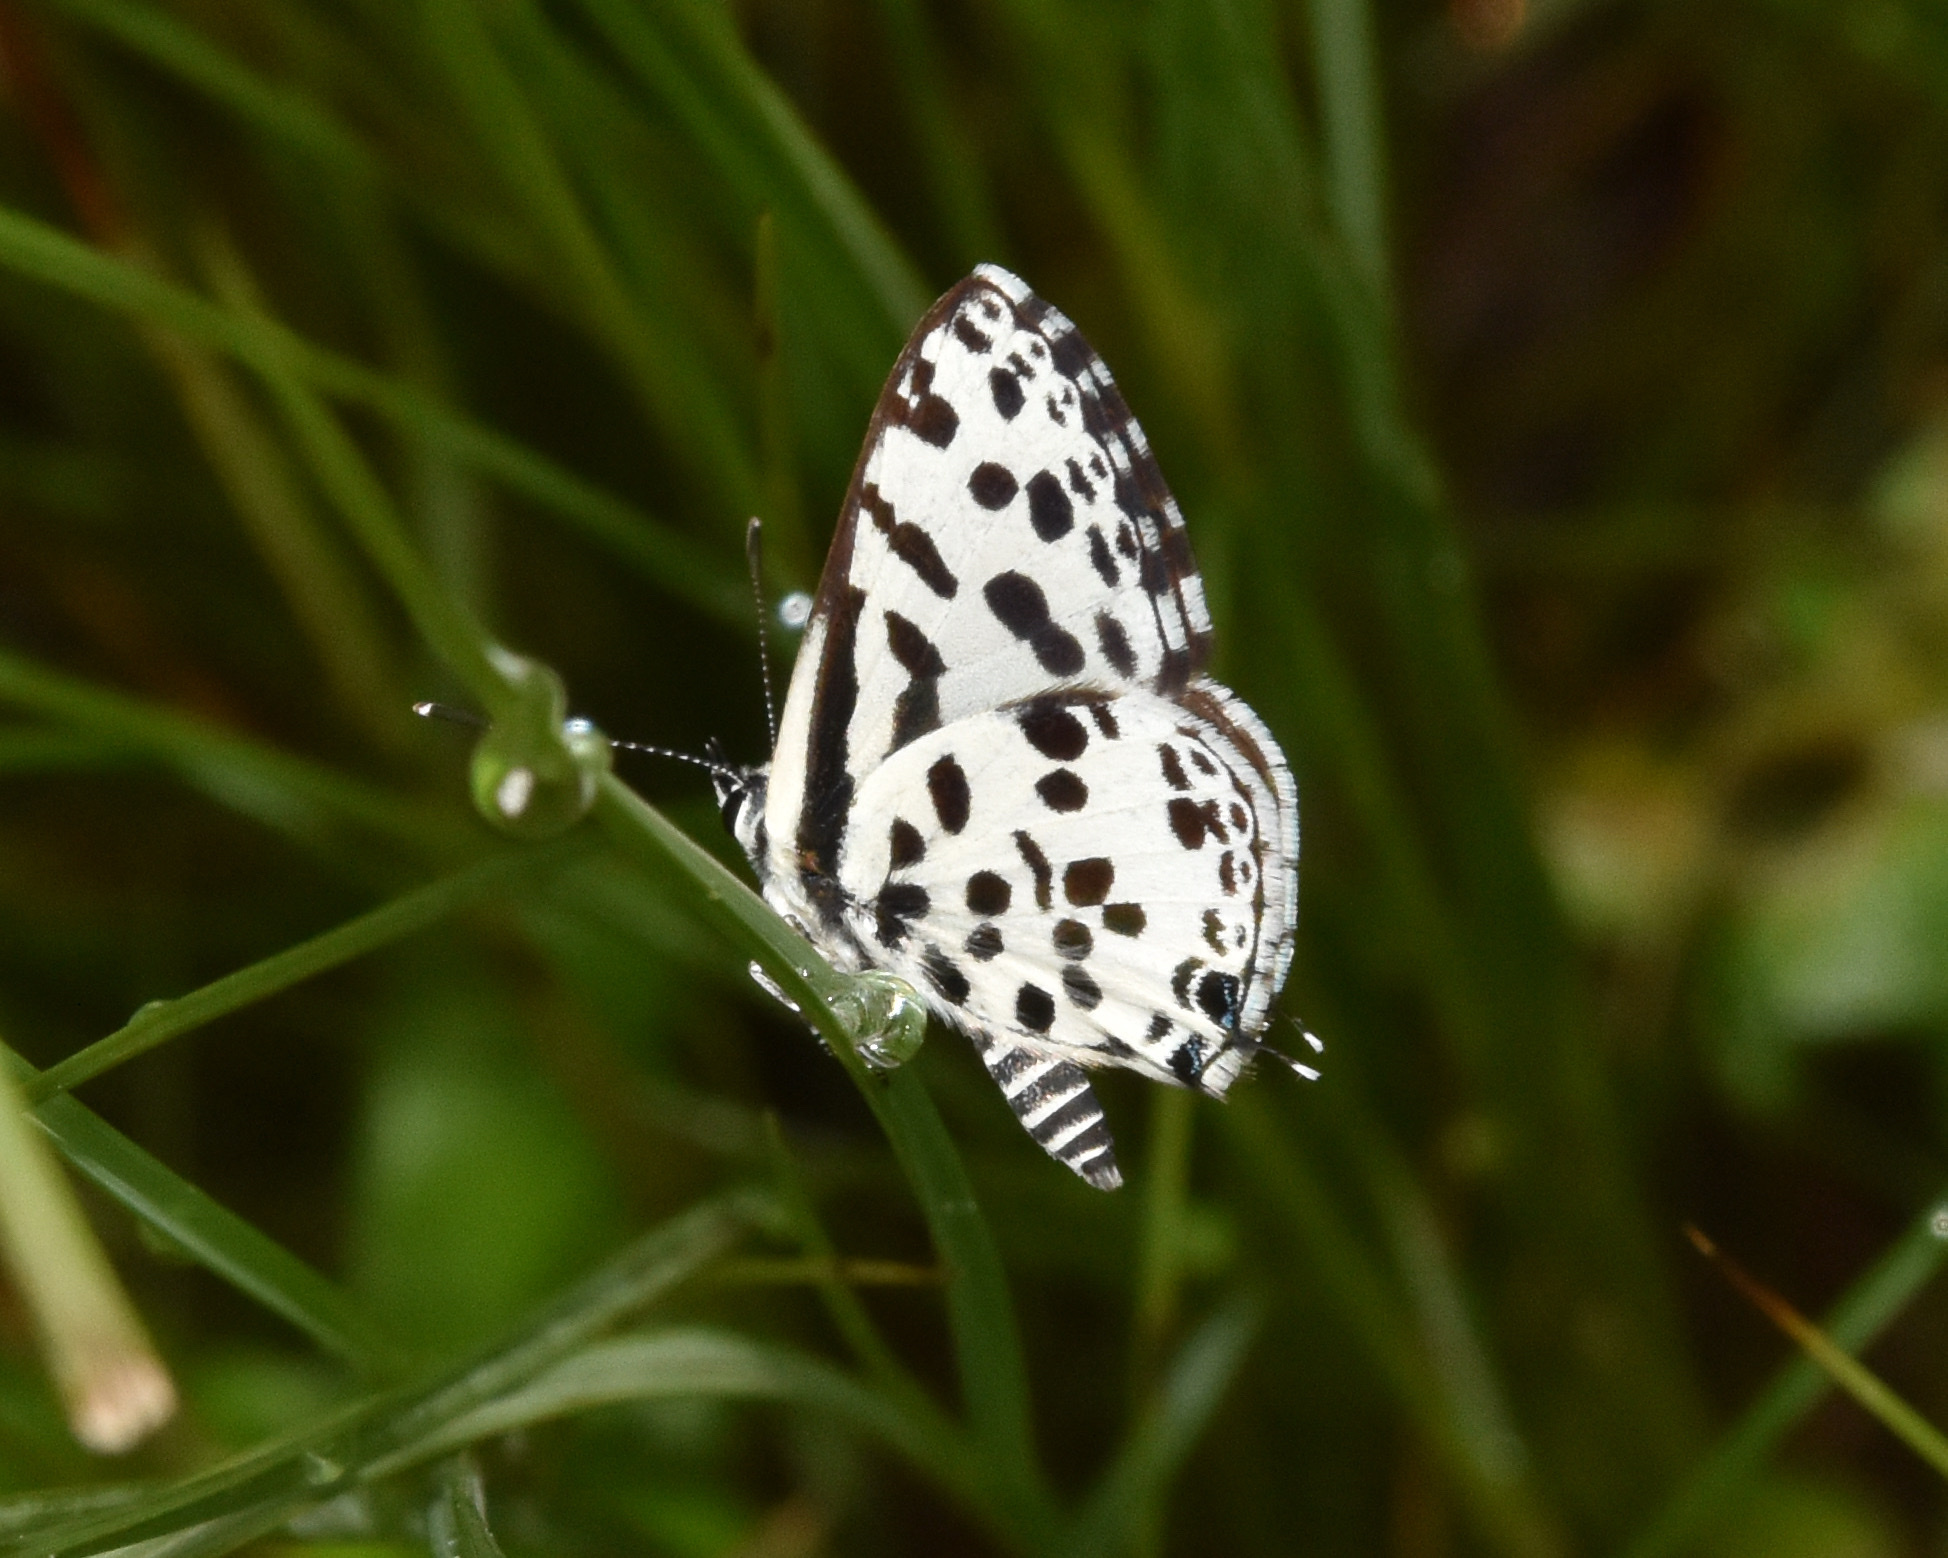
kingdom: Animalia
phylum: Arthropoda
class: Insecta
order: Lepidoptera
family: Lycaenidae
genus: Zintha
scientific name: Zintha hintza
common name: Hintza pierrot
